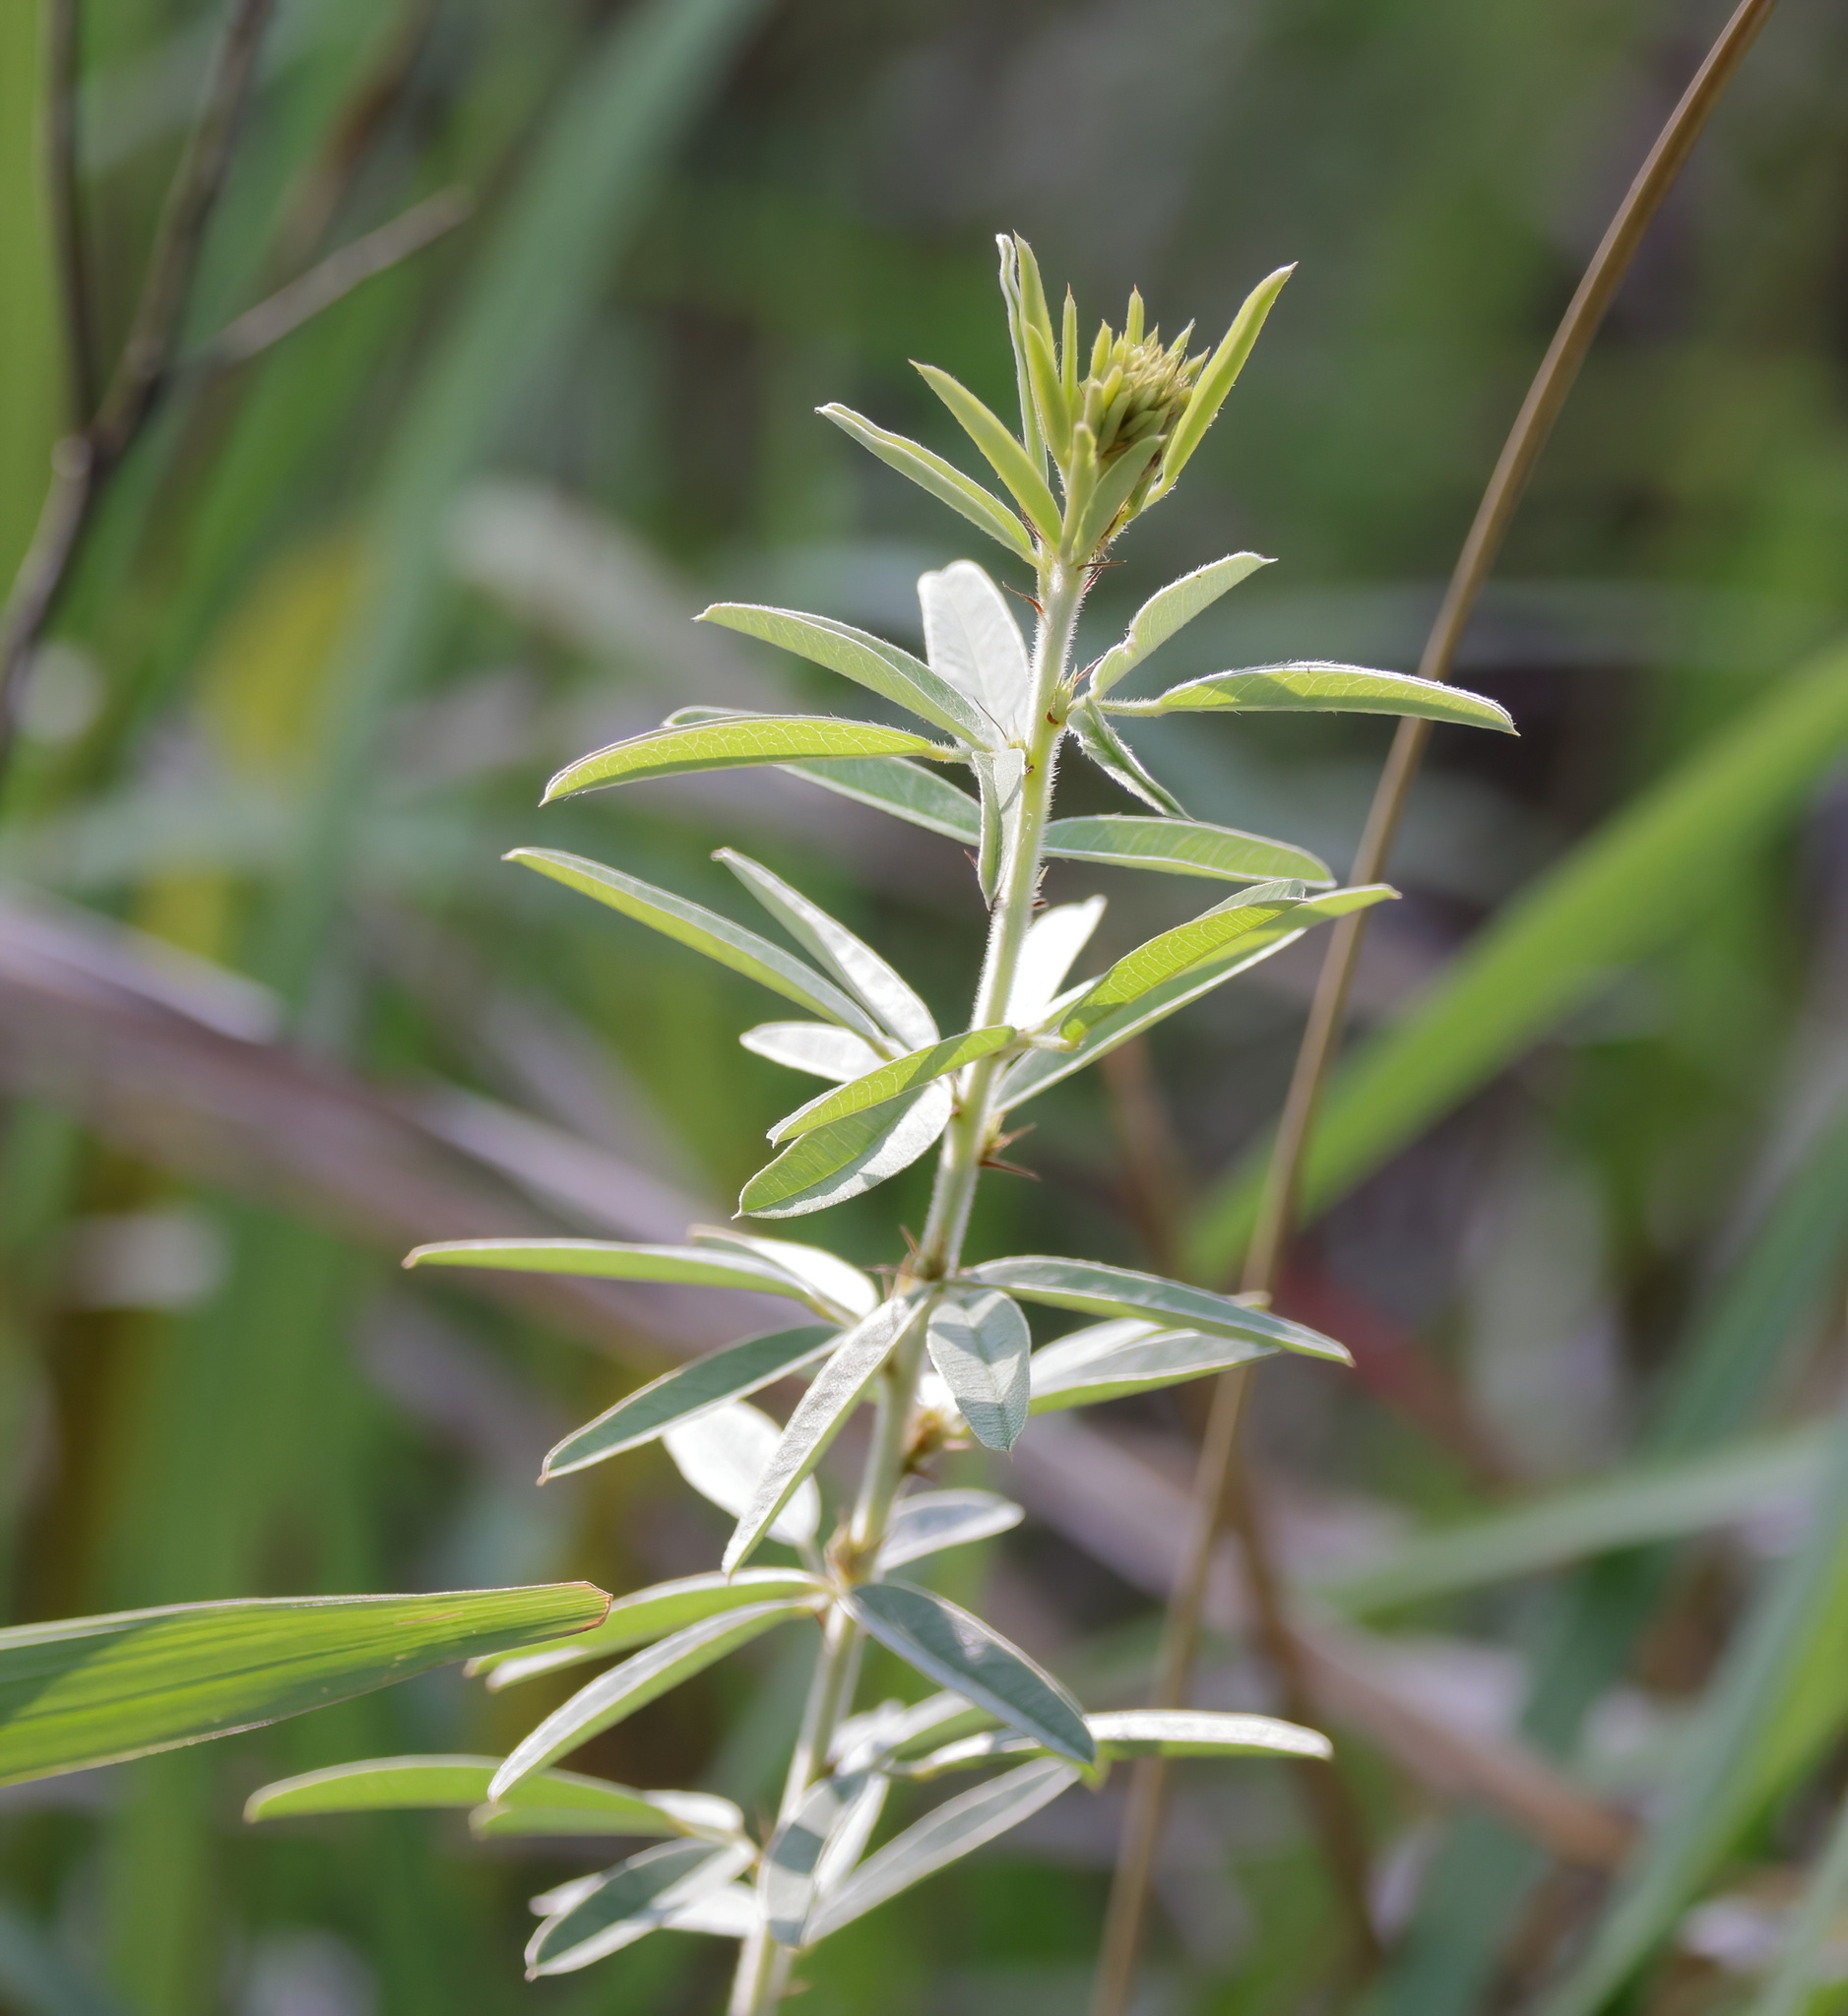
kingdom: Plantae
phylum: Tracheophyta
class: Magnoliopsida
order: Fabales
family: Fabaceae
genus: Lespedeza
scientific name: Lespedeza capitata
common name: Dusty clover
